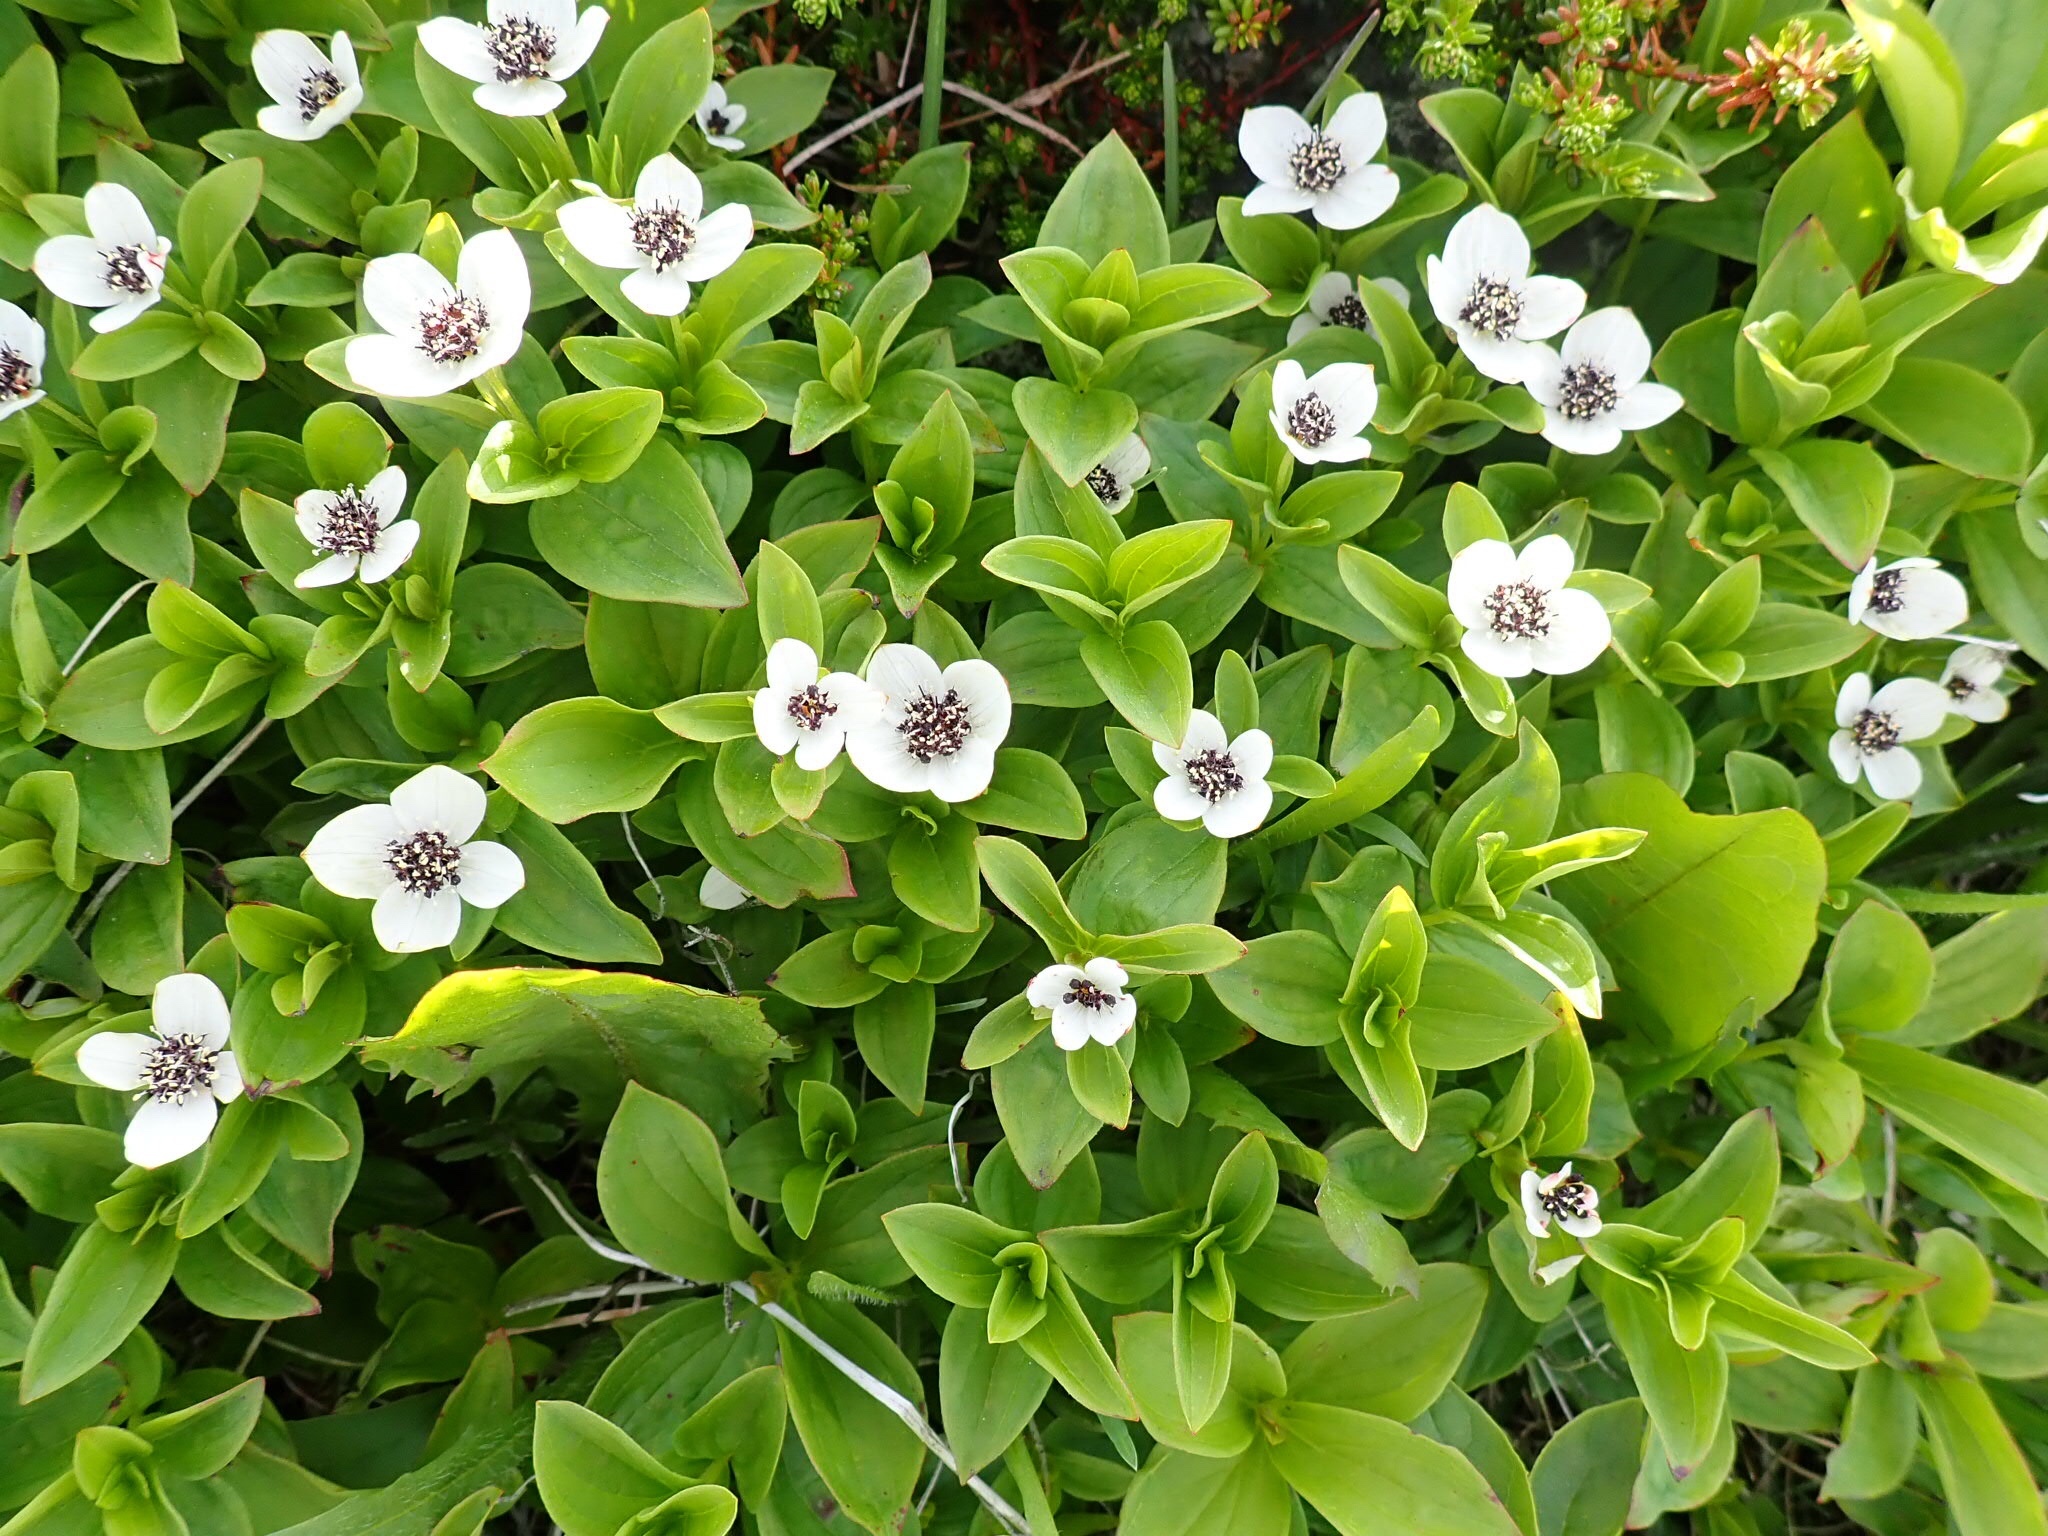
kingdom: Plantae
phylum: Tracheophyta
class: Magnoliopsida
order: Cornales
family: Cornaceae
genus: Cornus
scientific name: Cornus canadensis
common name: Creeping dogwood
